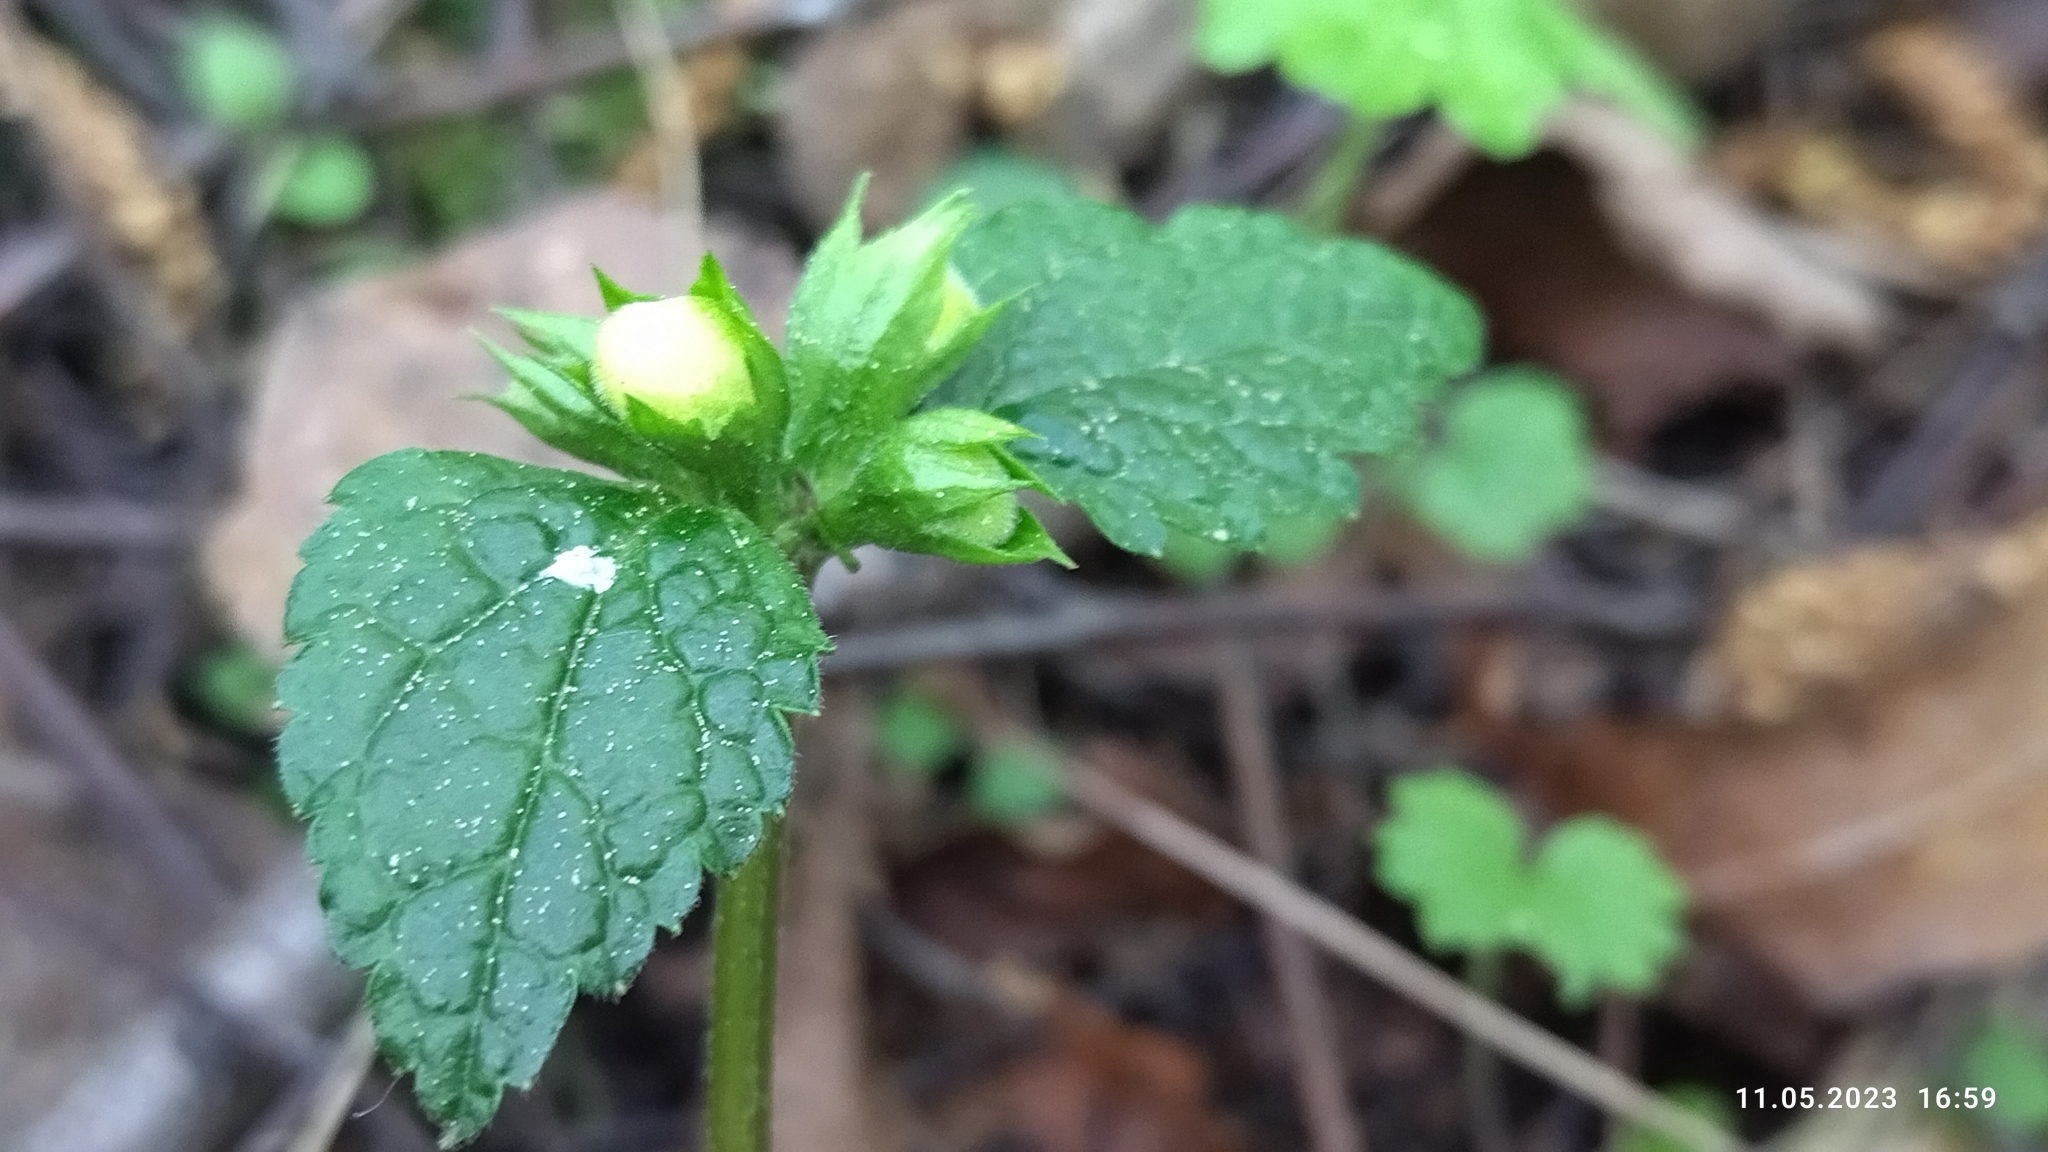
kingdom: Plantae
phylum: Tracheophyta
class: Magnoliopsida
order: Lamiales
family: Lamiaceae
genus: Lamium
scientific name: Lamium galeobdolon
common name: Yellow archangel
